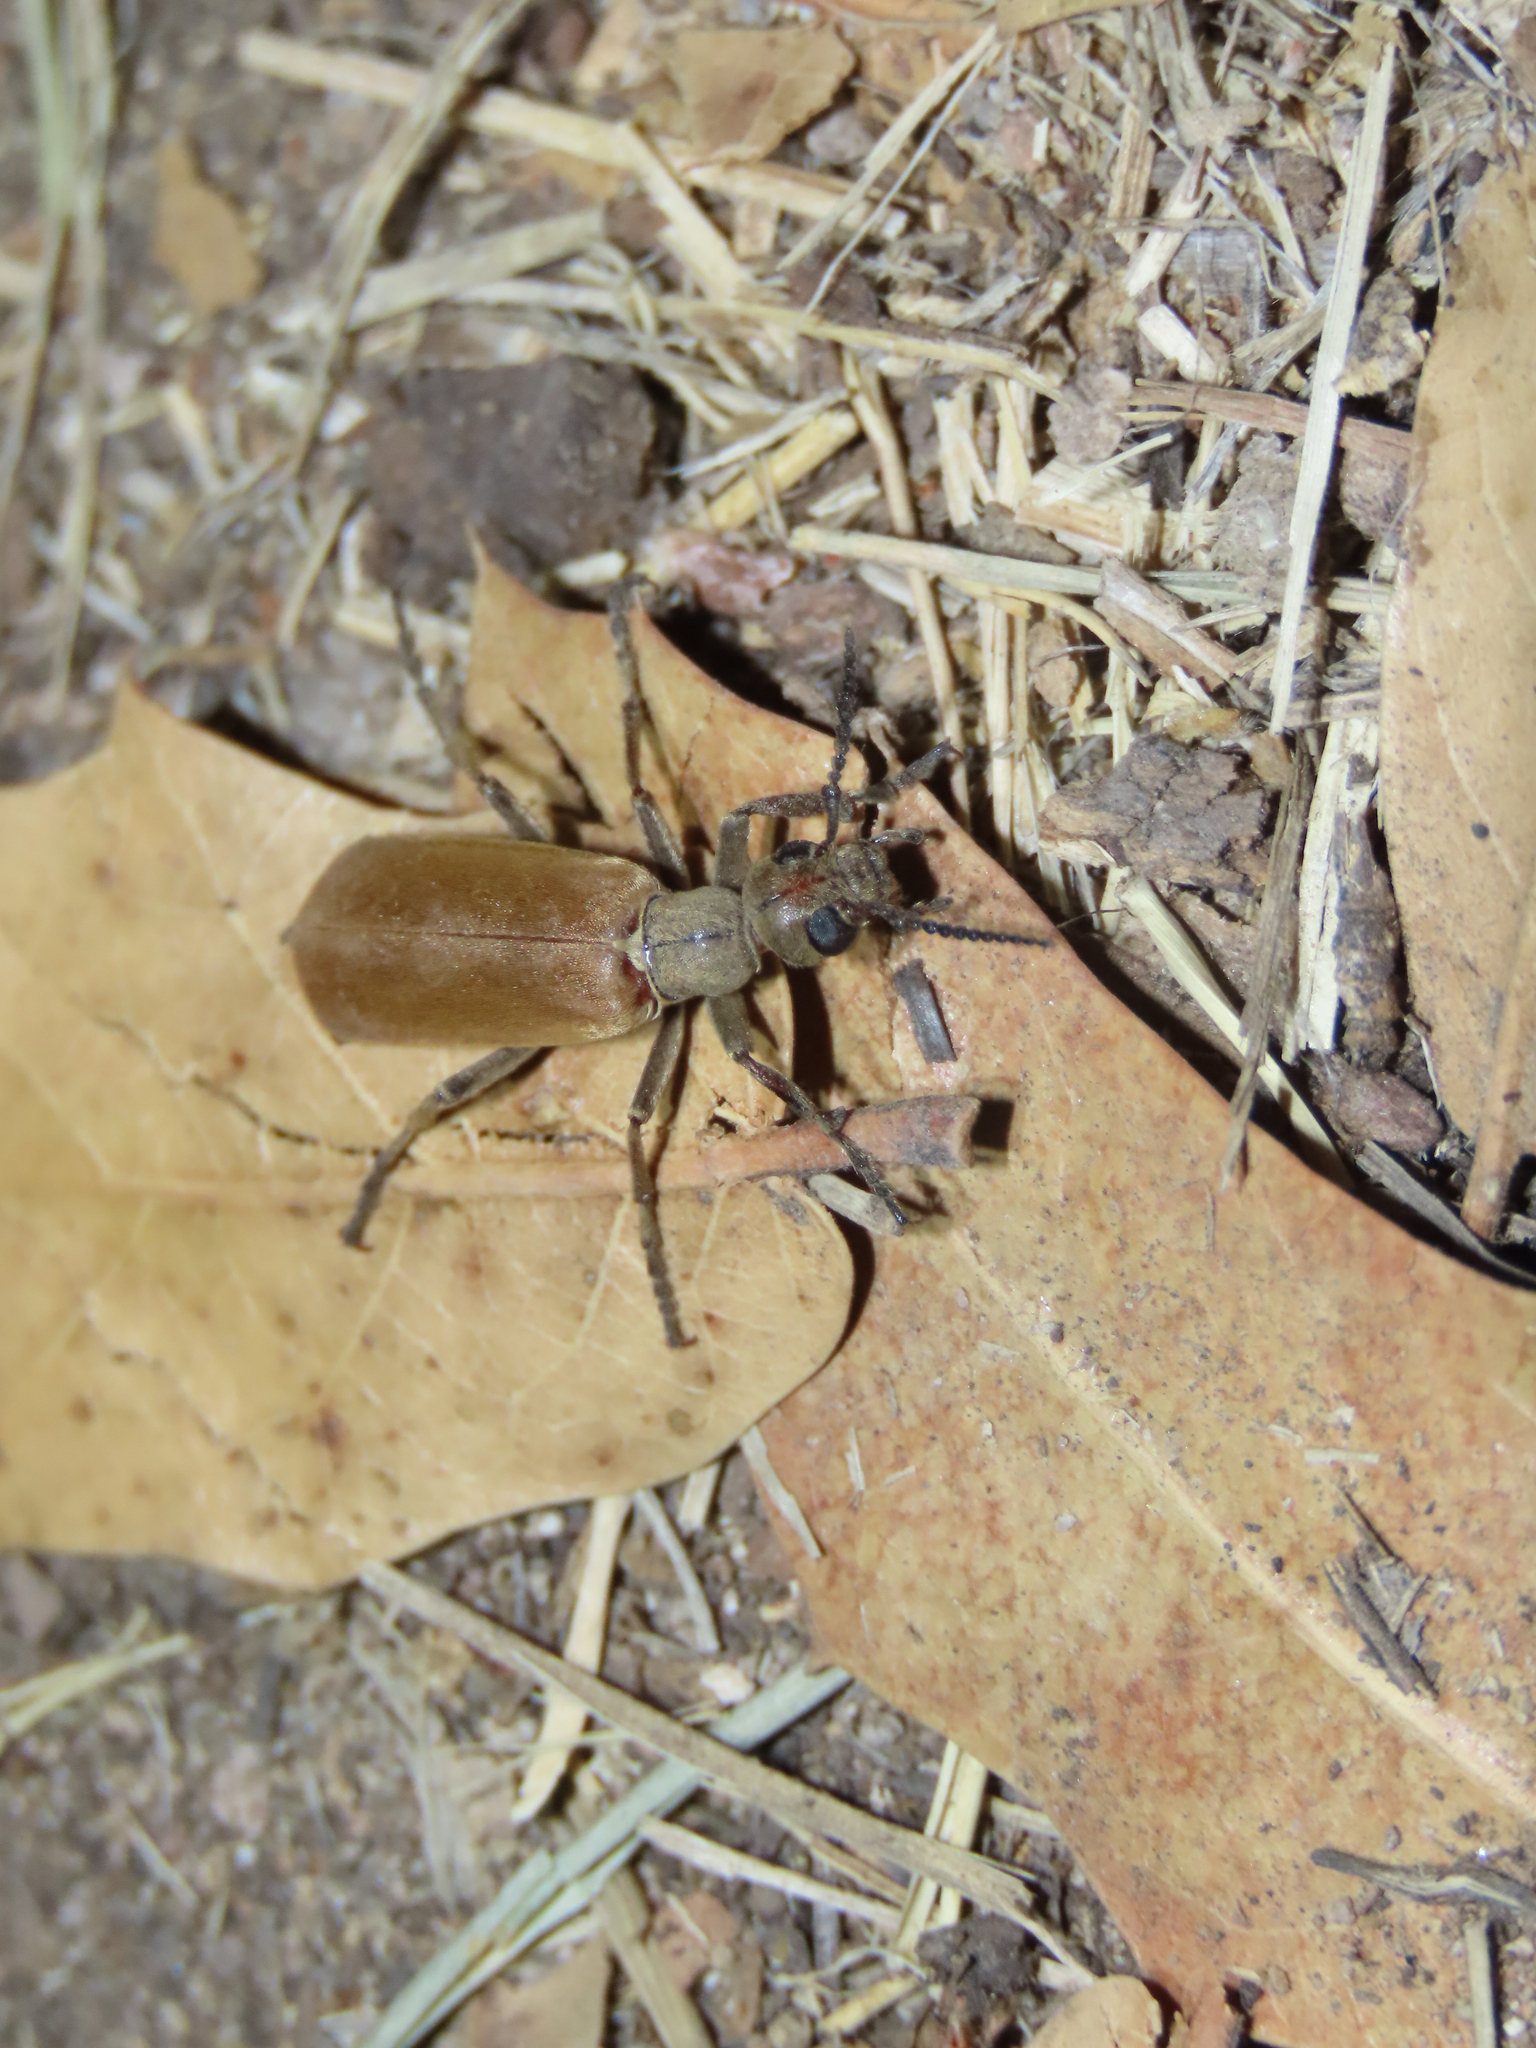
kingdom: Animalia
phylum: Arthropoda
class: Insecta
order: Coleoptera
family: Meloidae
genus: Epicauta
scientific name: Epicauta ochrea
